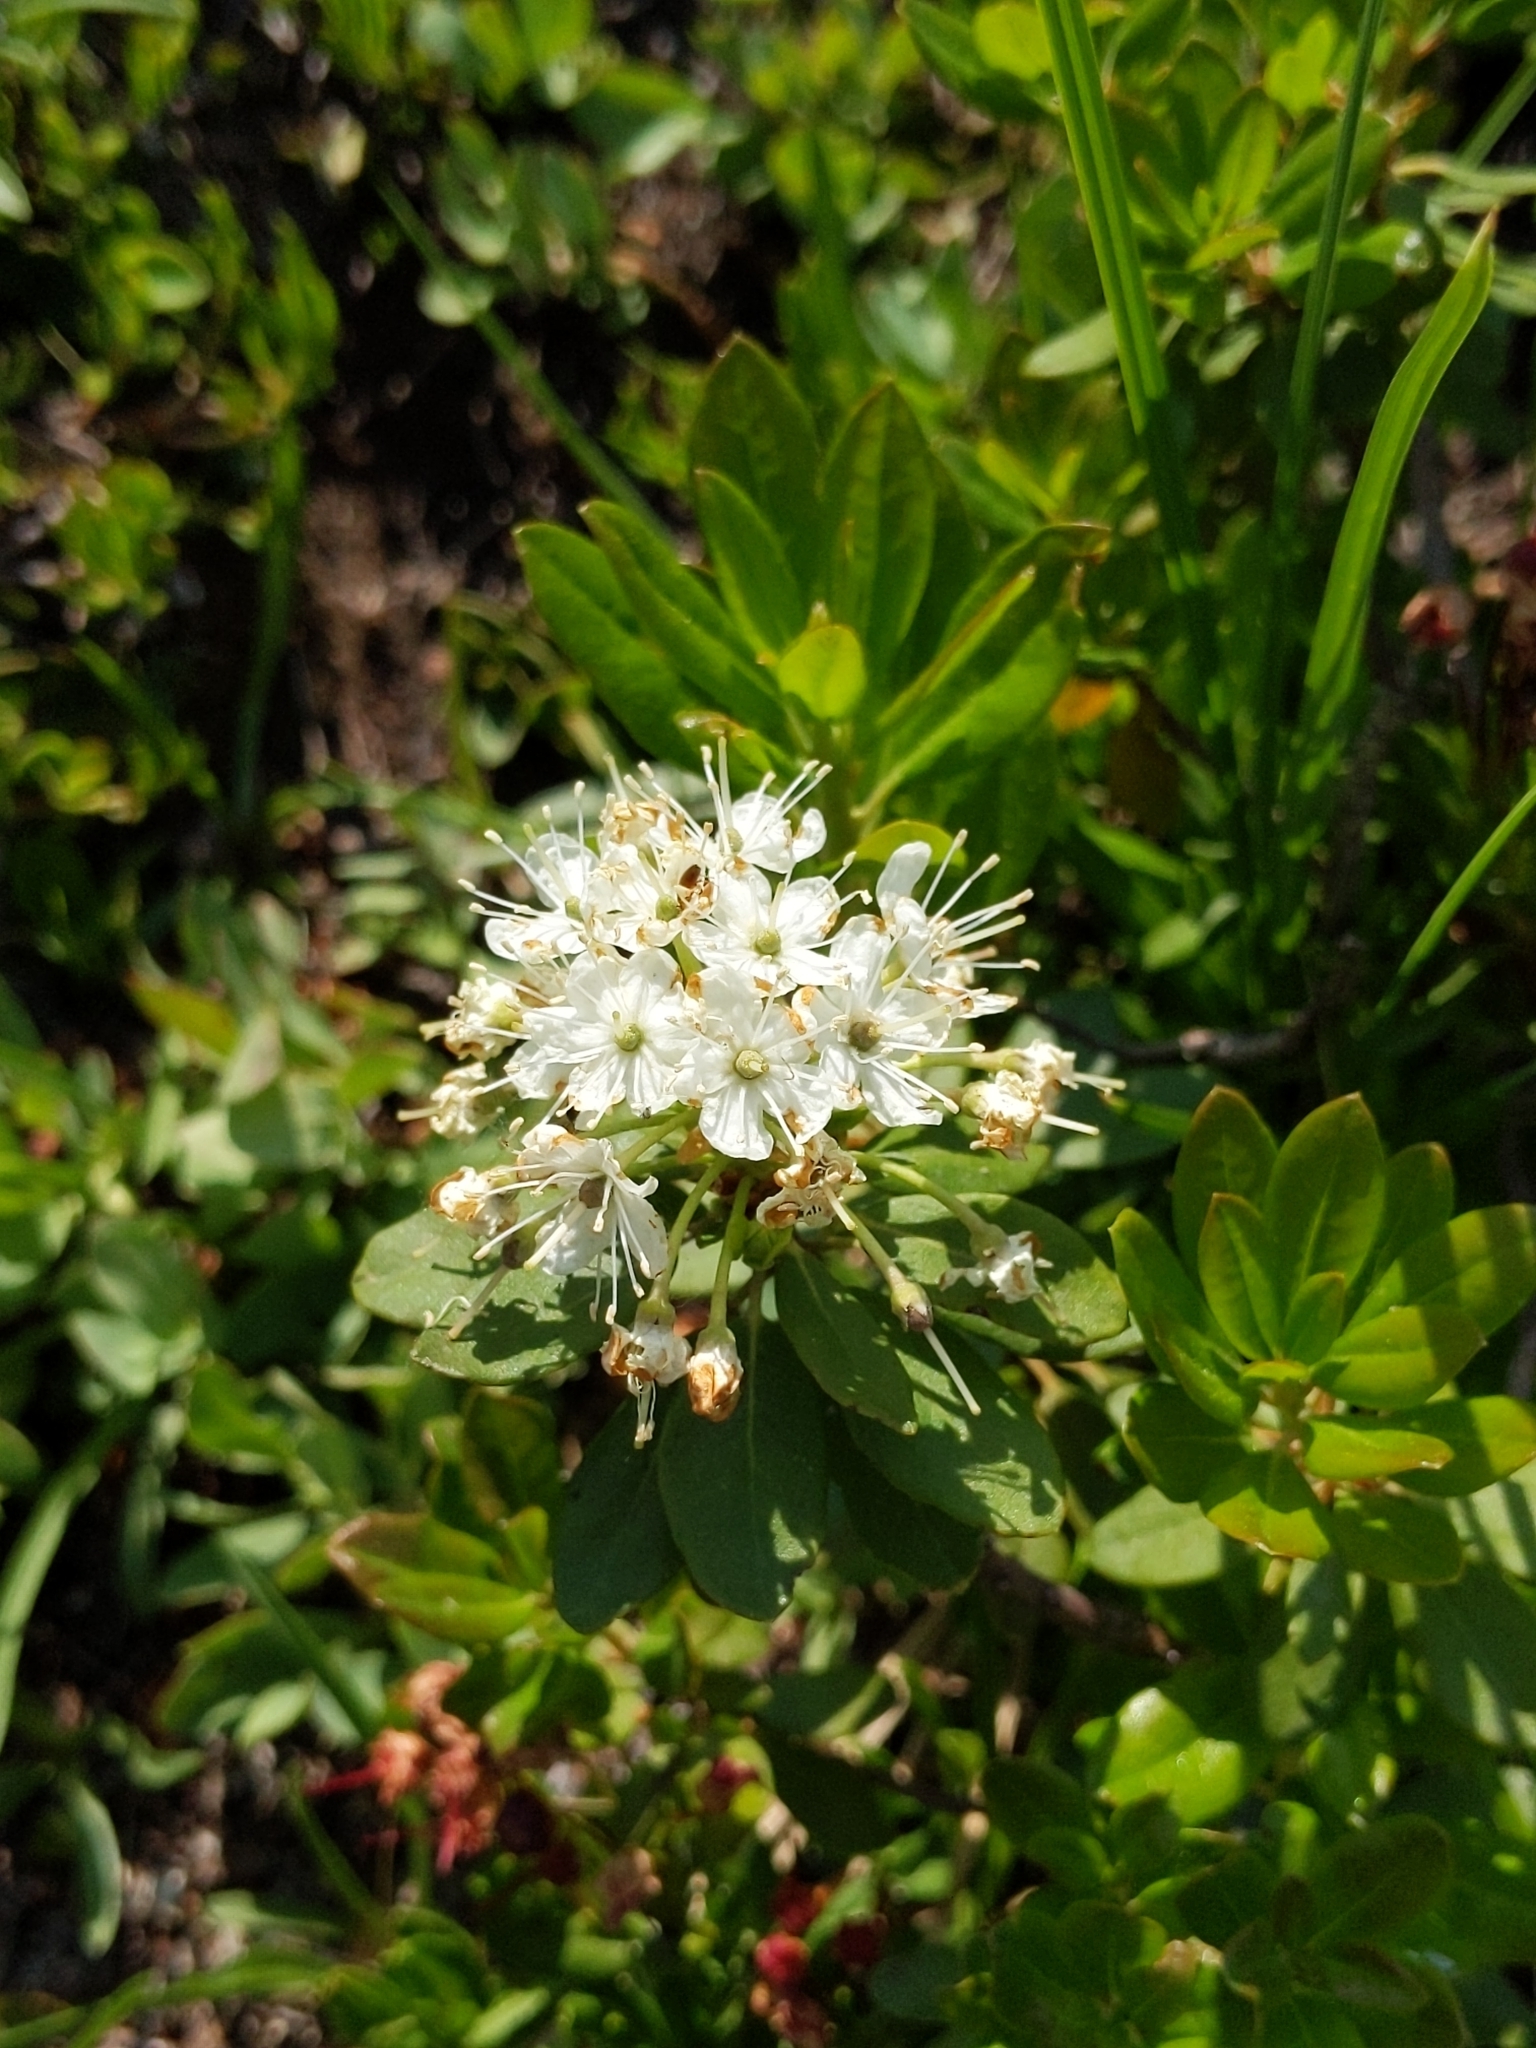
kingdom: Plantae
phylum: Tracheophyta
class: Magnoliopsida
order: Ericales
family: Ericaceae
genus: Rhododendron
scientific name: Rhododendron columbianum
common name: Western labrador tea
